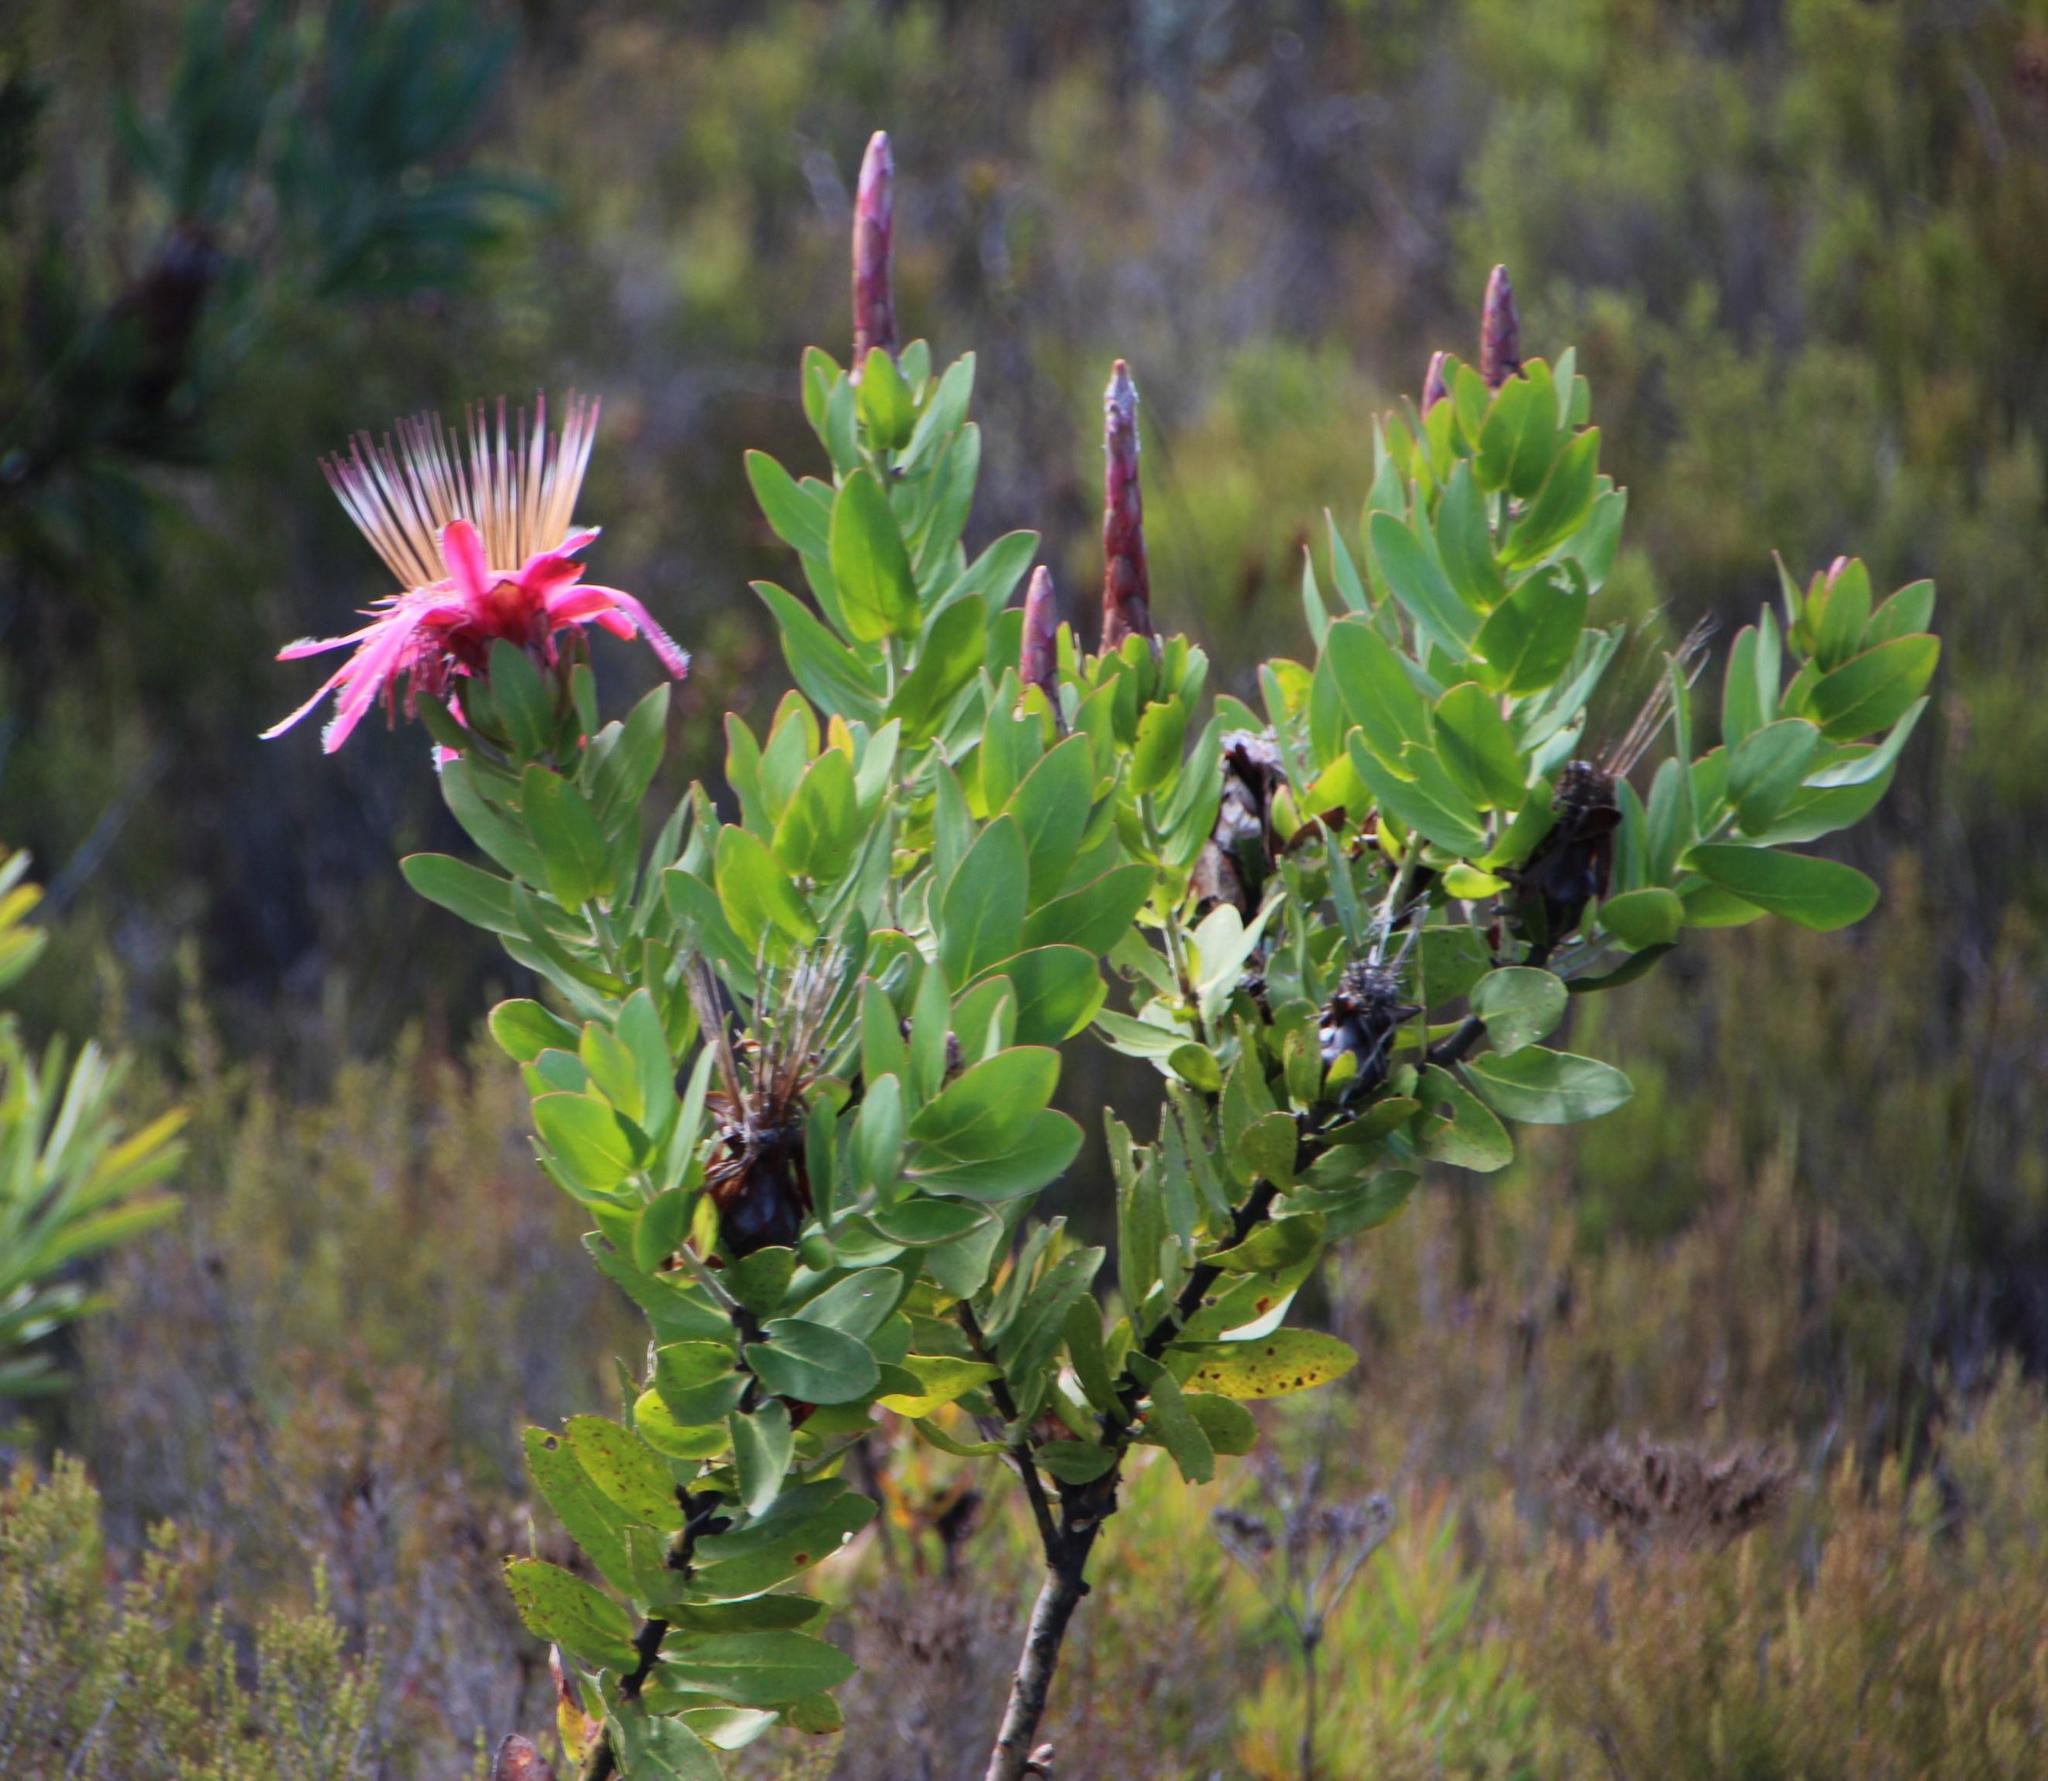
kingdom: Animalia
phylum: Chordata
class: Aves
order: Passeriformes
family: Nectariniidae
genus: Anthobaphes
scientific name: Anthobaphes violacea
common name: Orange-breasted sunbird
